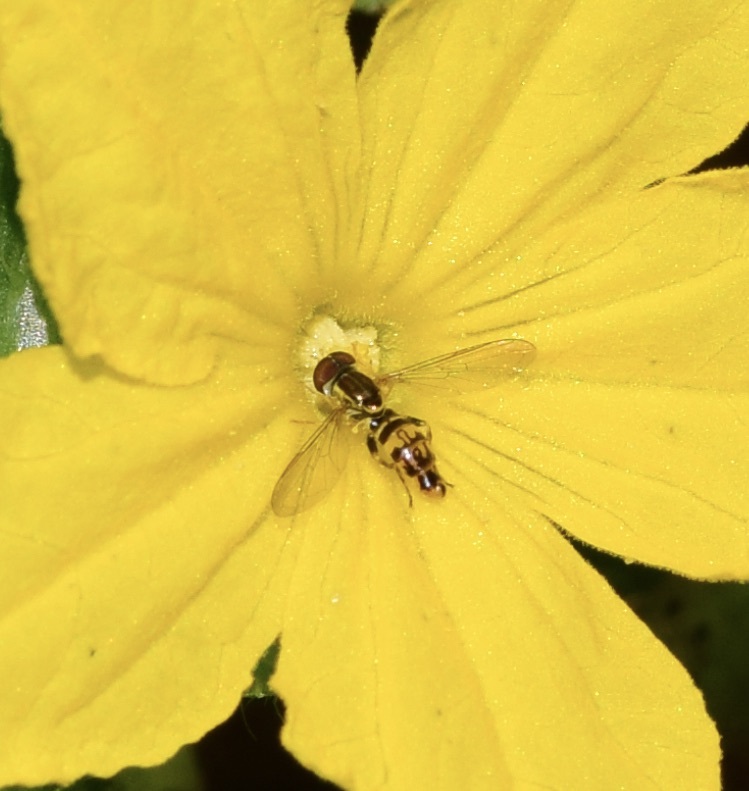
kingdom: Animalia
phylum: Arthropoda
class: Insecta
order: Diptera
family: Syrphidae
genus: Toxomerus
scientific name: Toxomerus geminatus
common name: Eastern calligrapher
